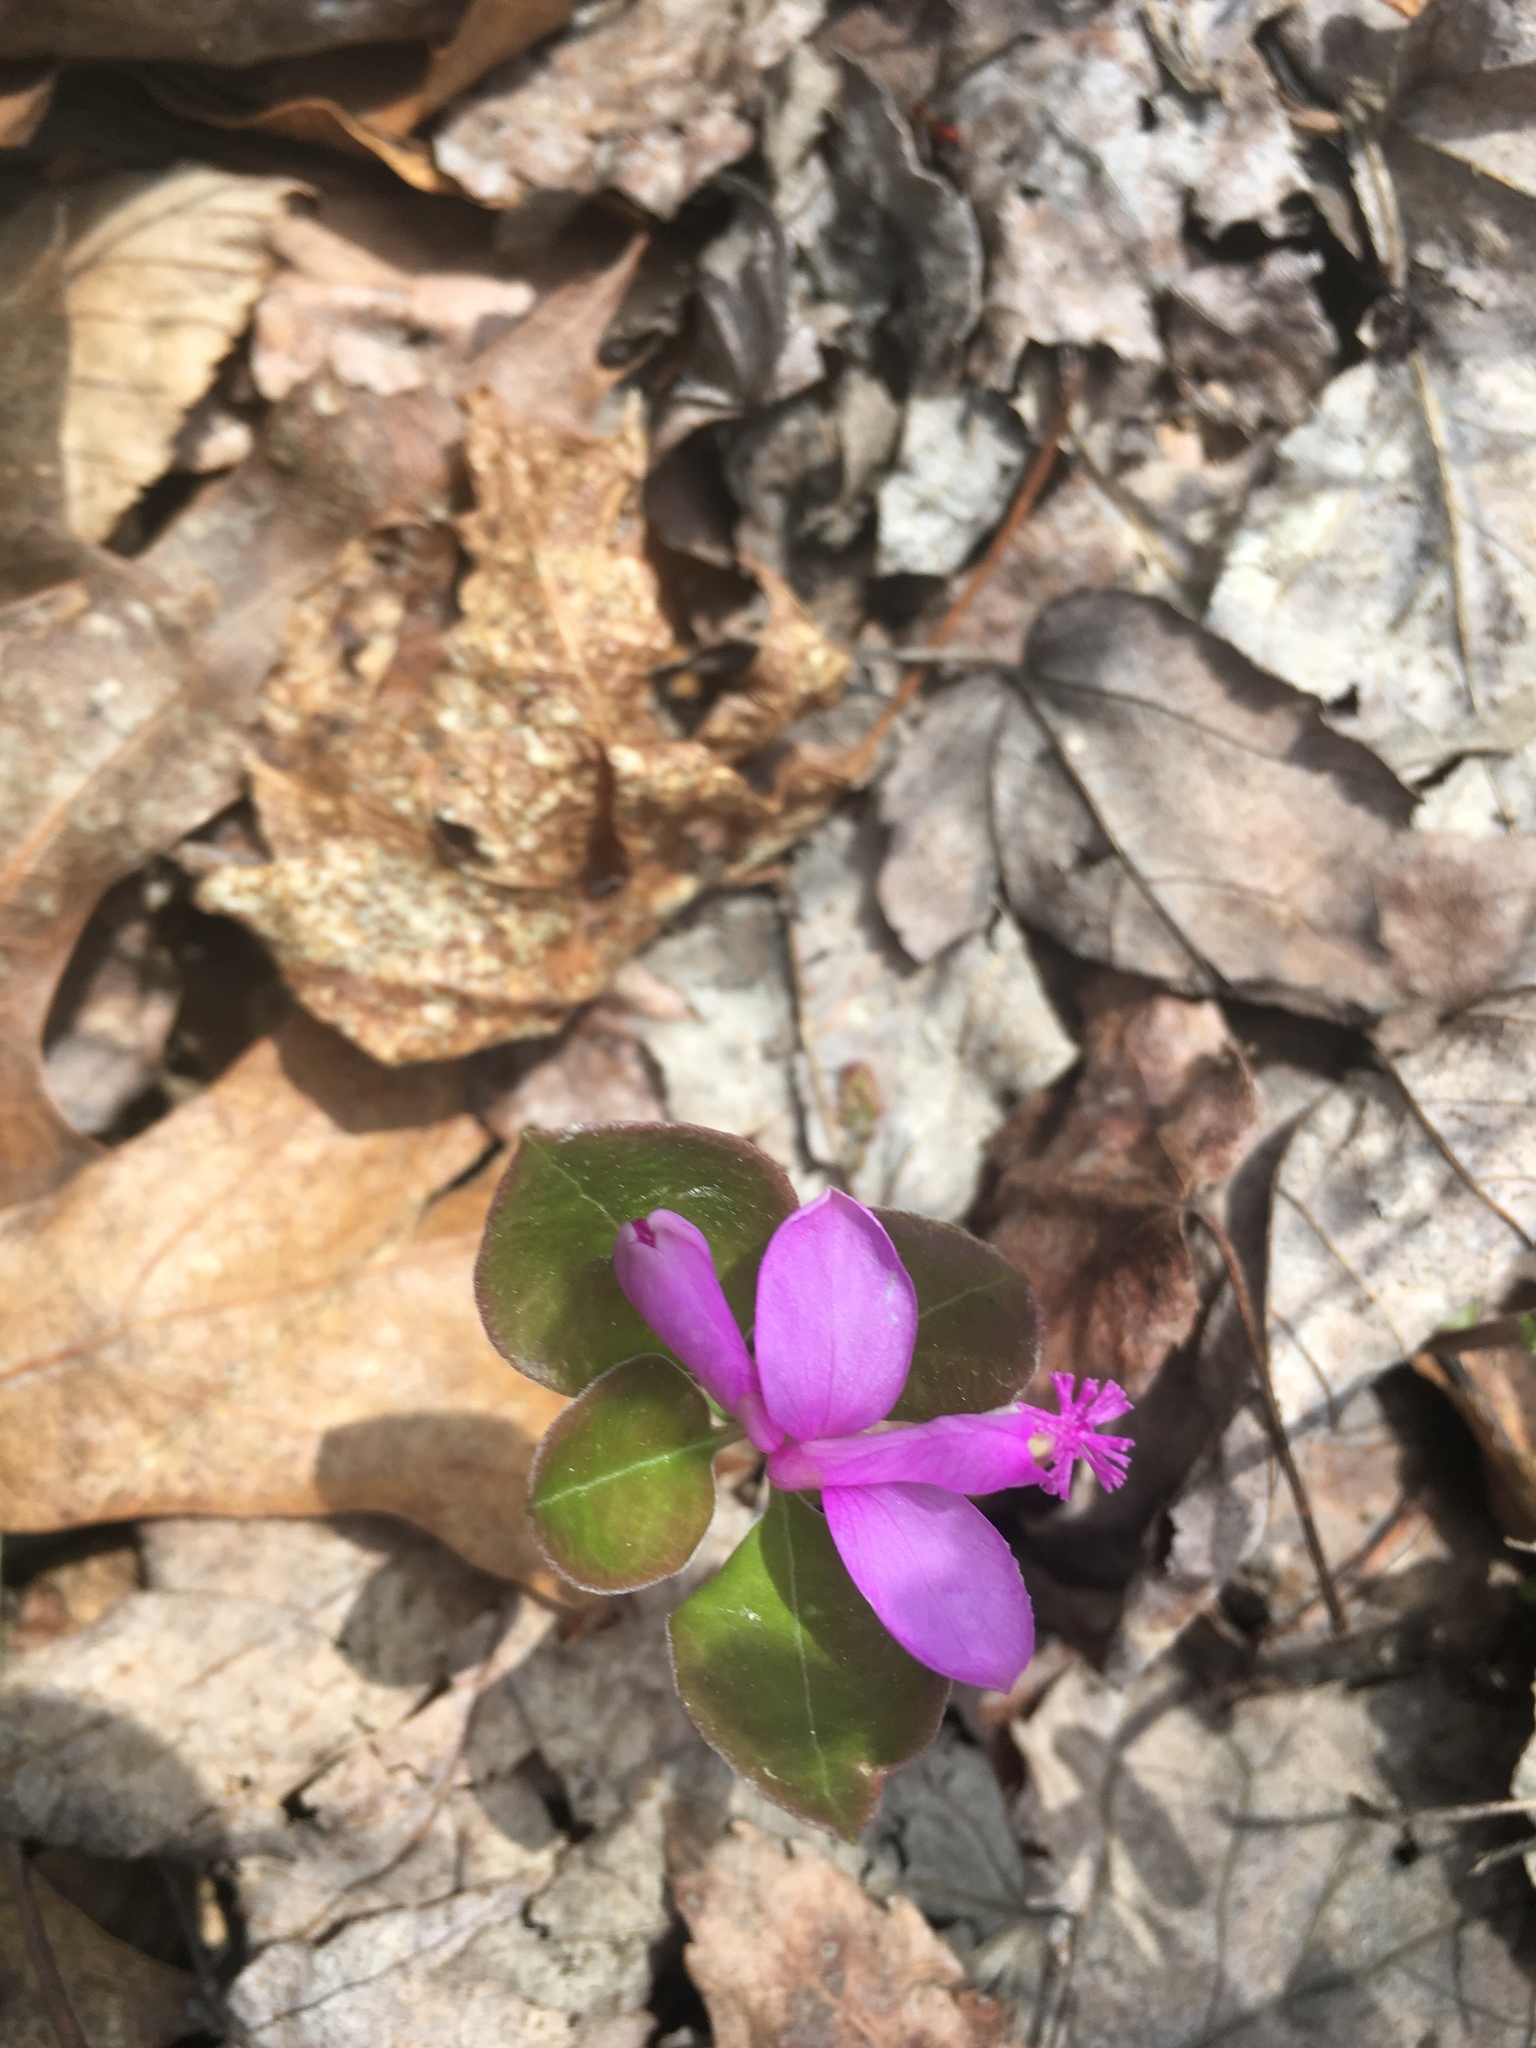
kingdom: Plantae
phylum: Tracheophyta
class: Magnoliopsida
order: Fabales
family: Polygalaceae
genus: Polygaloides
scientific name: Polygaloides paucifolia
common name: Bird-on-the-wing
